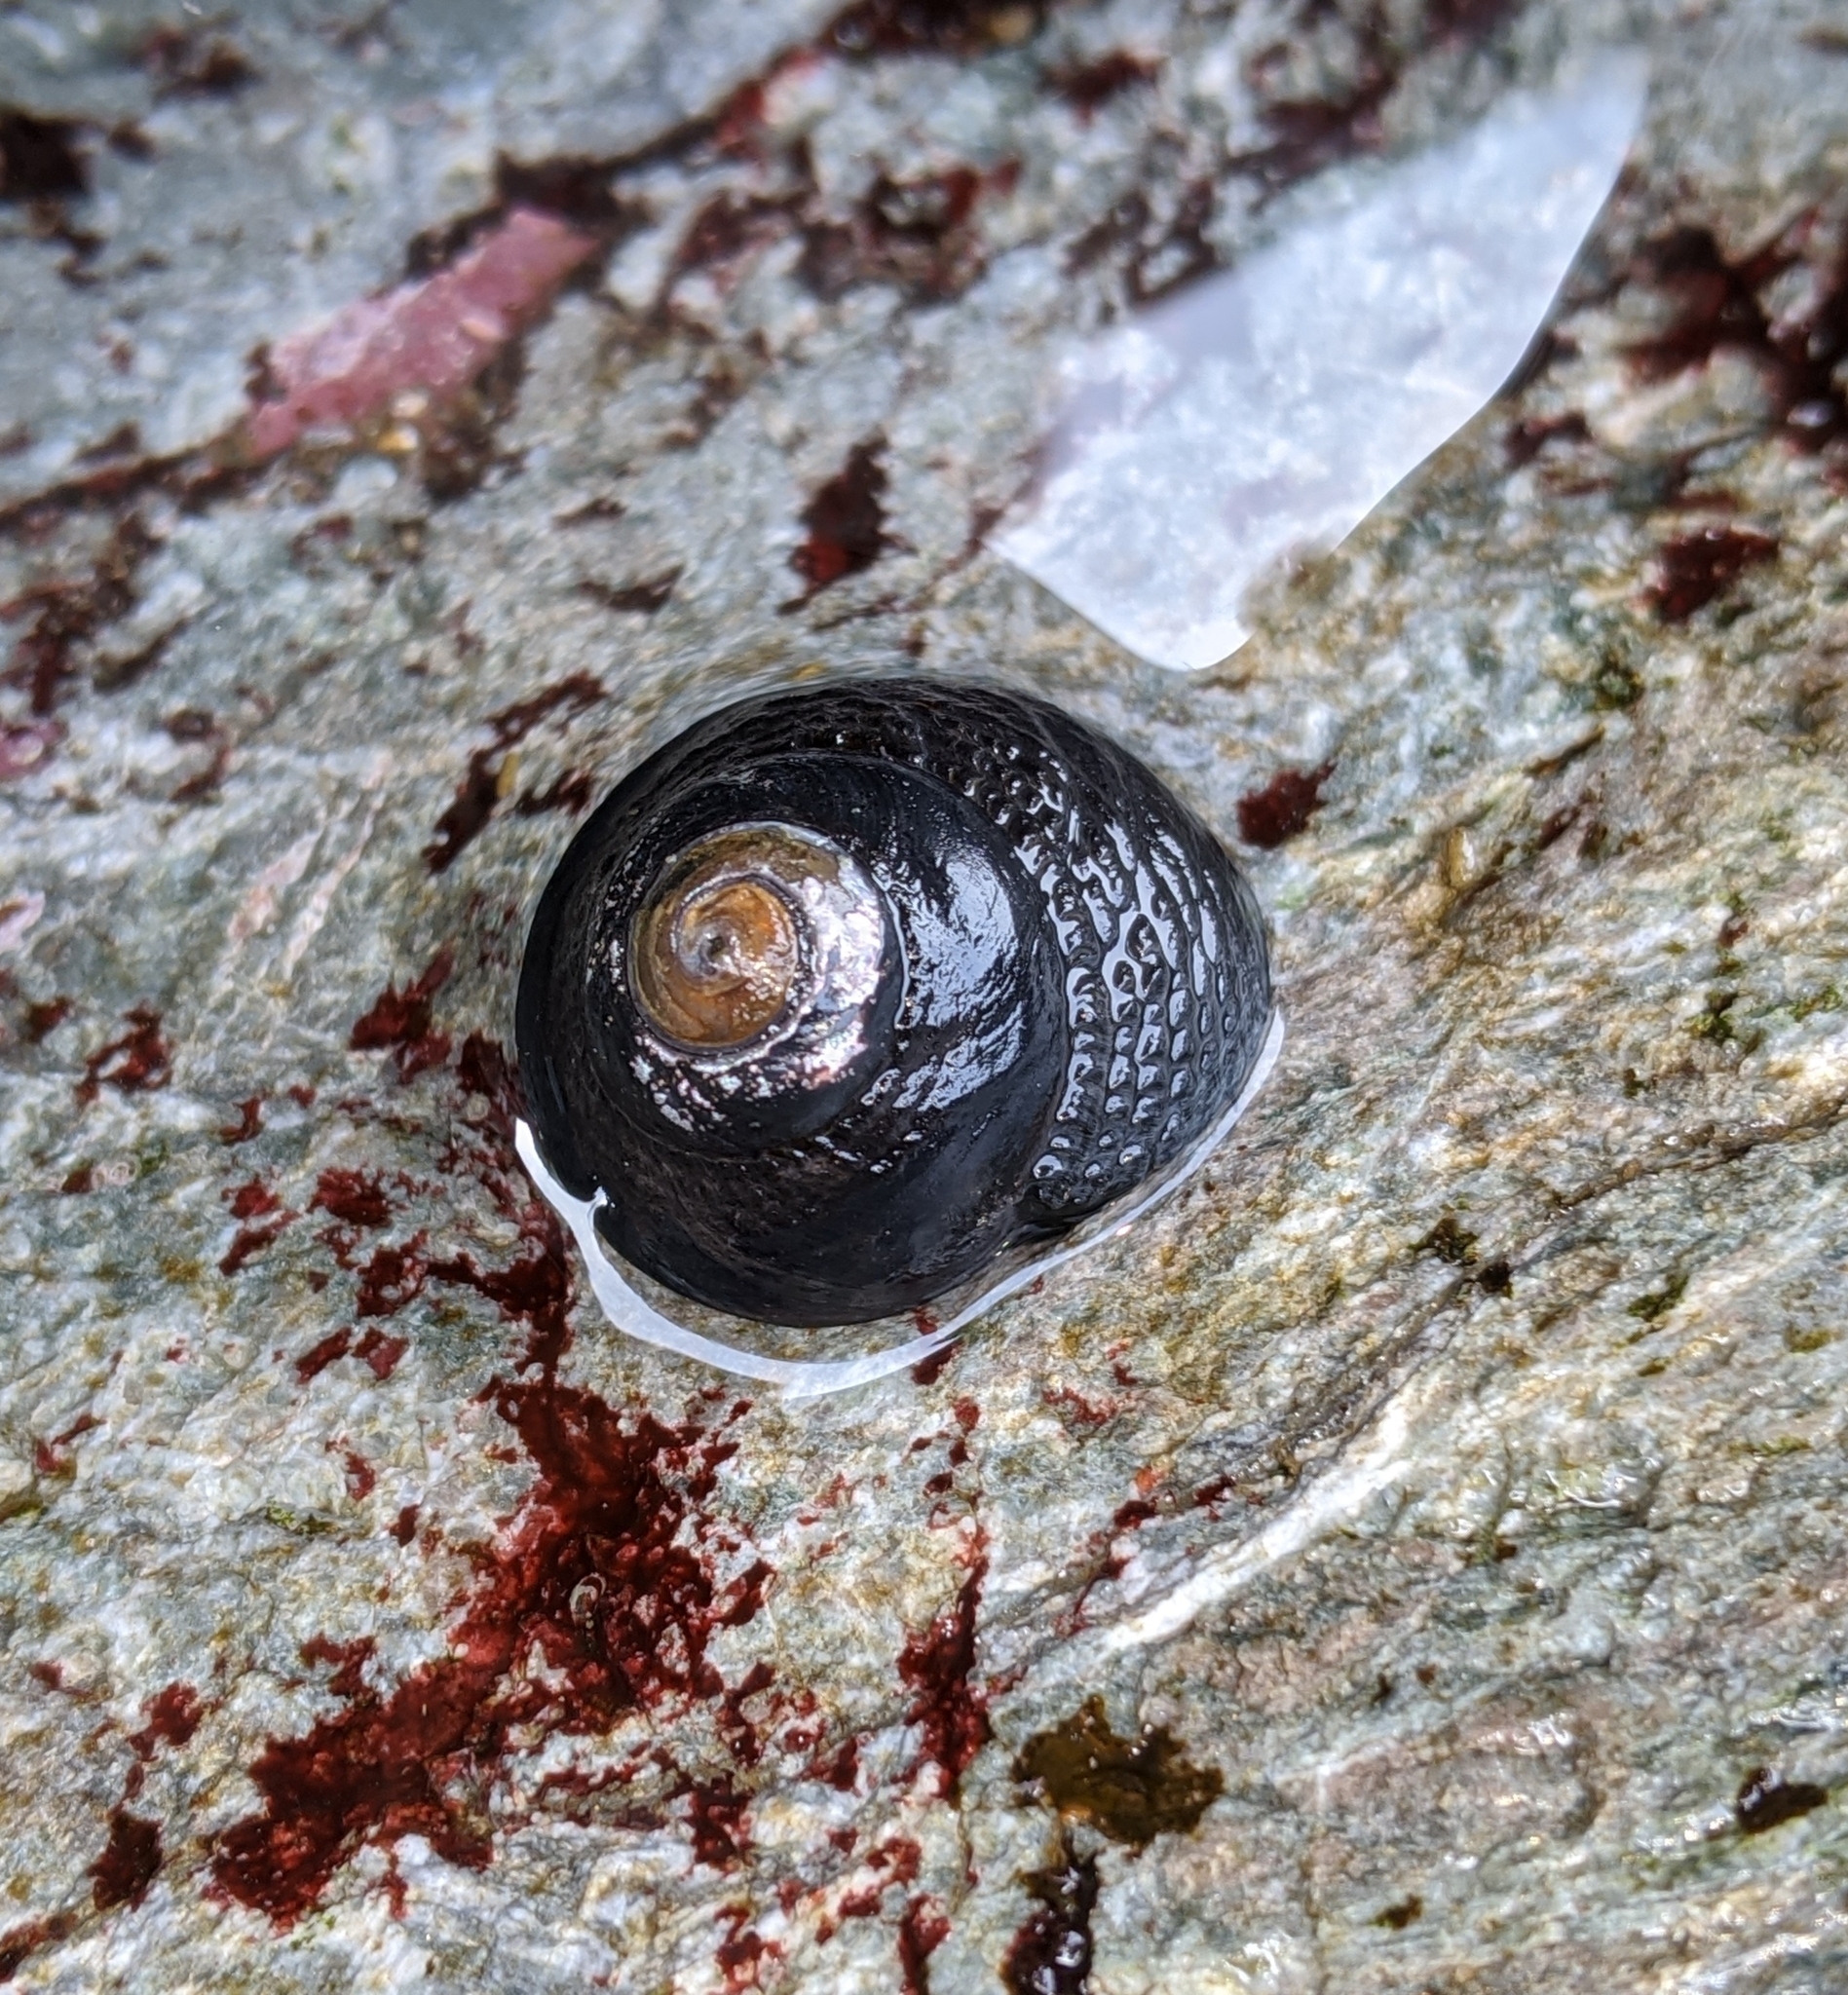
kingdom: Animalia
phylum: Mollusca
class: Gastropoda
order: Trochida
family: Tegulidae
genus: Tegula
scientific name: Tegula funebralis
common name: Black tegula
